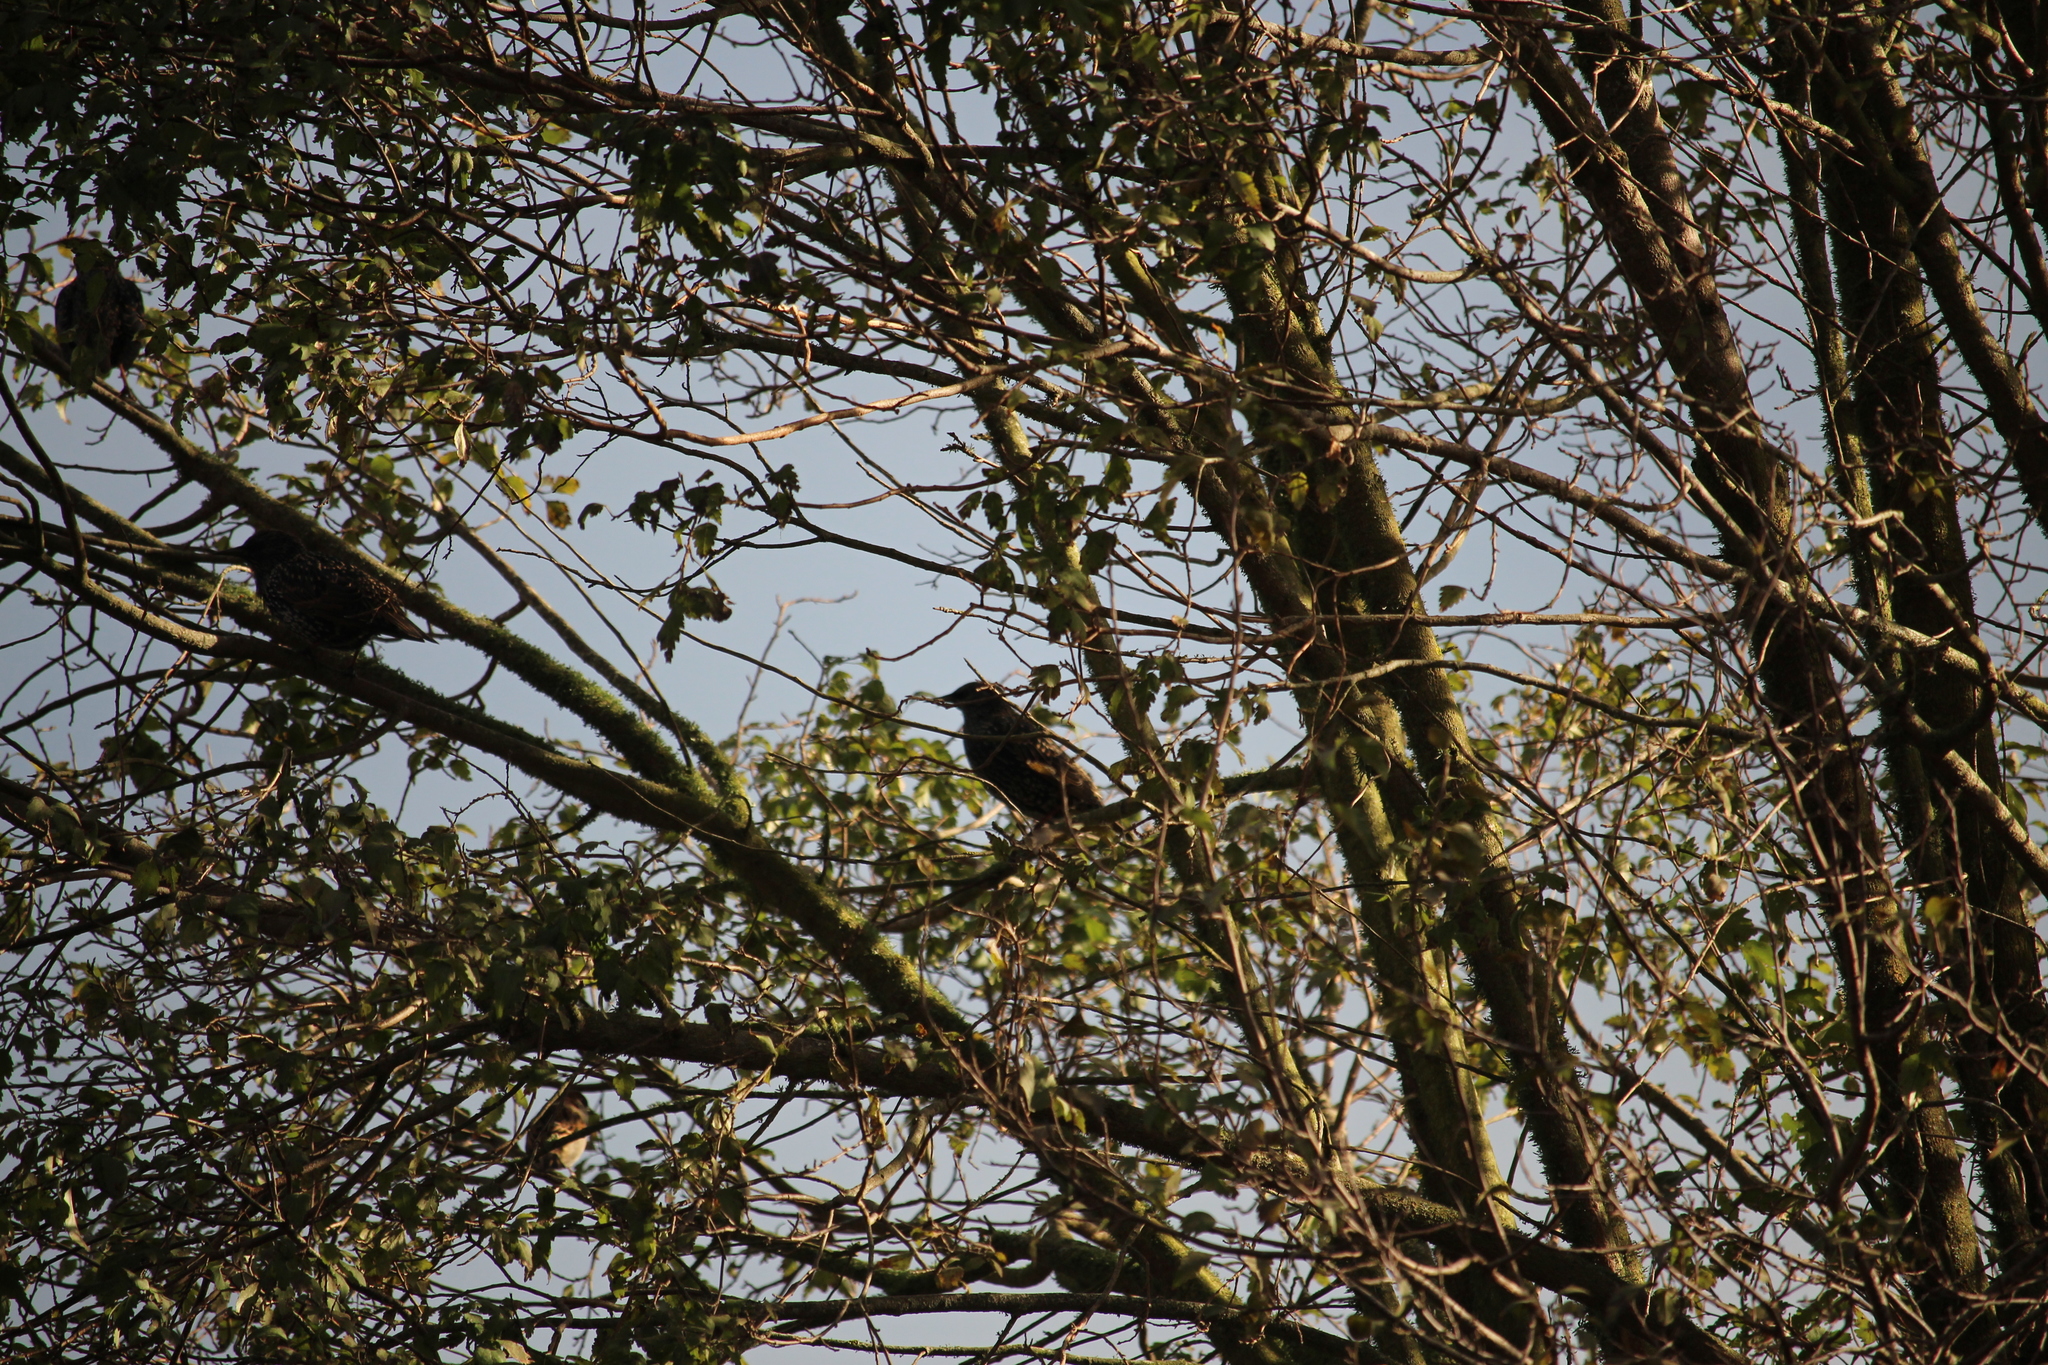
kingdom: Animalia
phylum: Chordata
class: Aves
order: Passeriformes
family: Sturnidae
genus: Sturnus
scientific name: Sturnus vulgaris
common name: Common starling
